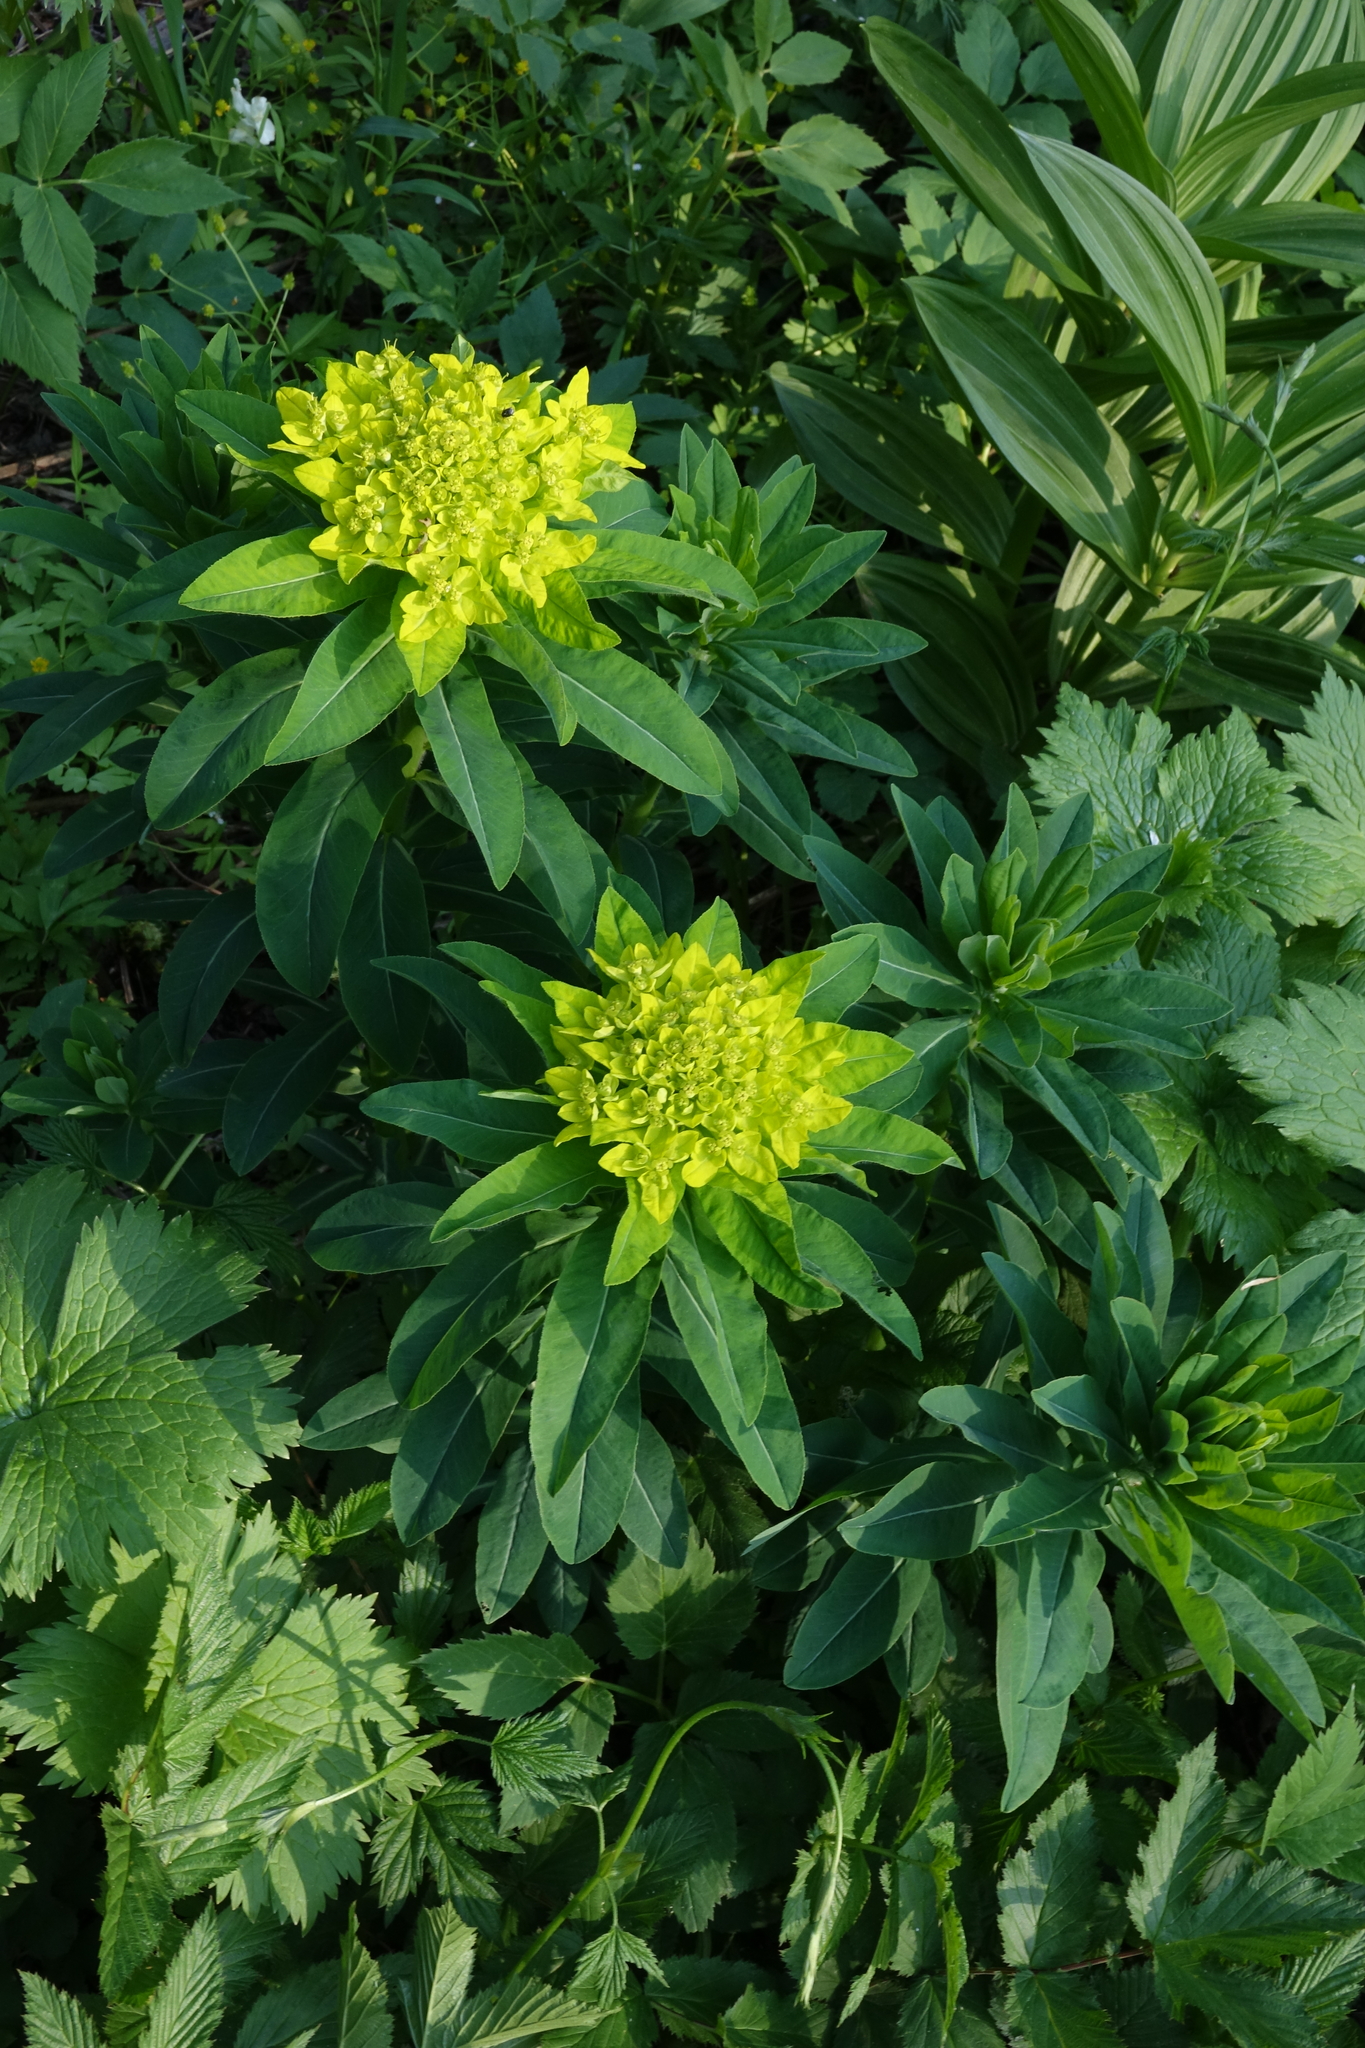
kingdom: Plantae
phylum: Tracheophyta
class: Magnoliopsida
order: Malpighiales
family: Euphorbiaceae
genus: Euphorbia
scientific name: Euphorbia pilosa
